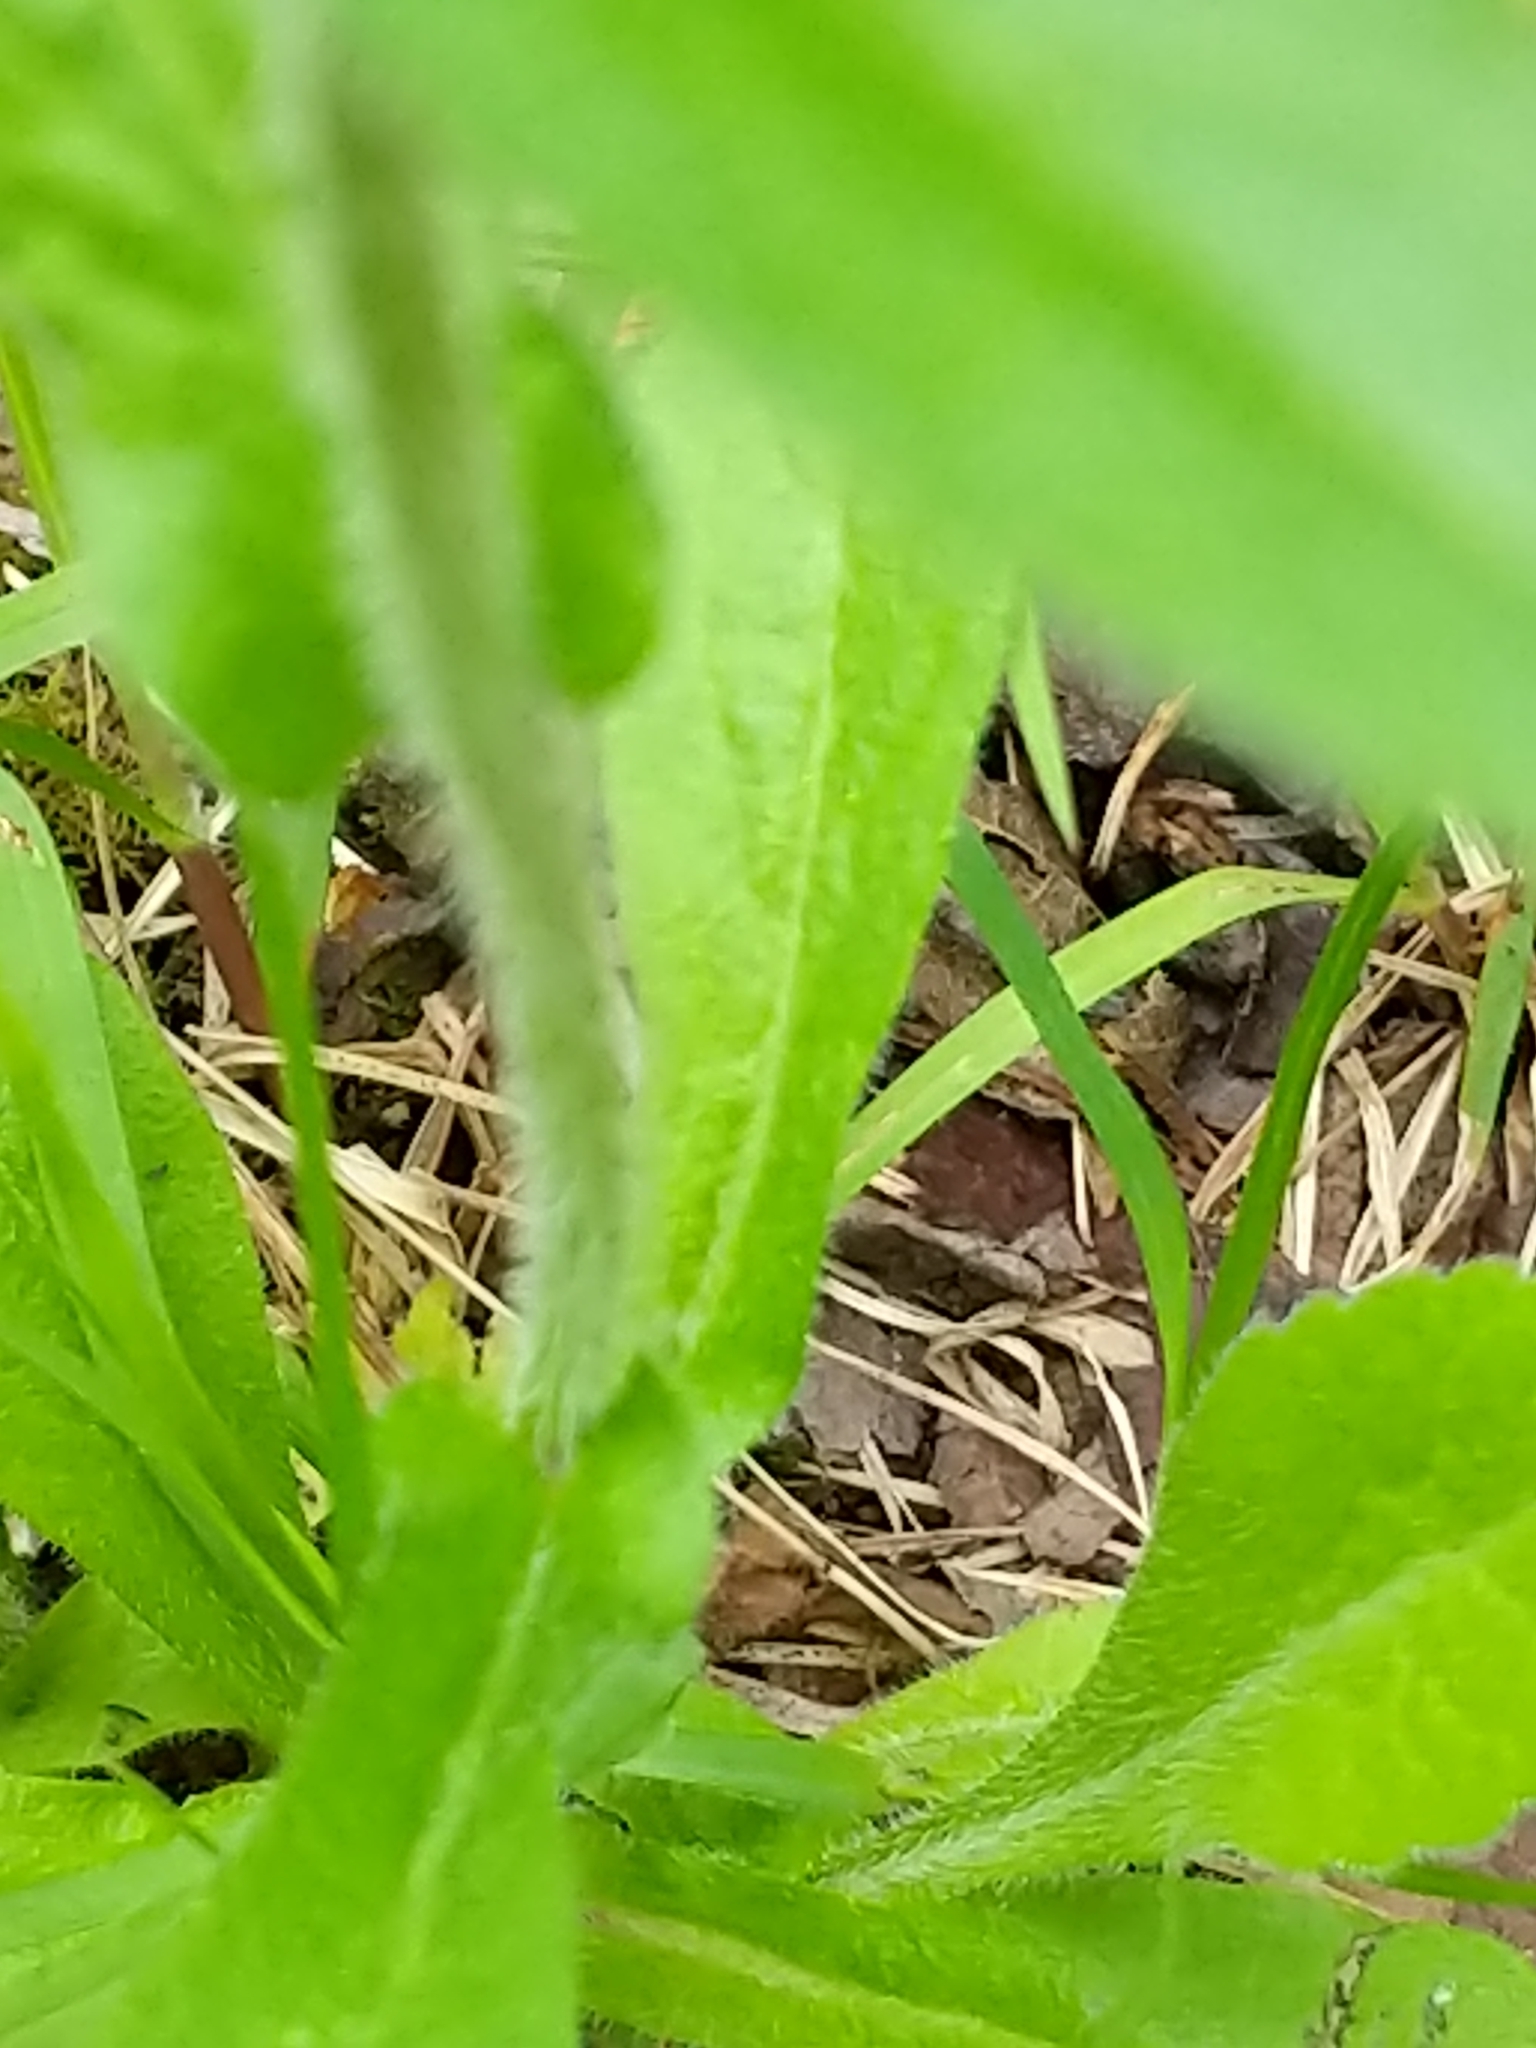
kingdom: Plantae
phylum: Tracheophyta
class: Magnoliopsida
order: Asterales
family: Asteraceae
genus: Erigeron
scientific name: Erigeron philadelphicus
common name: Robin's-plantain
